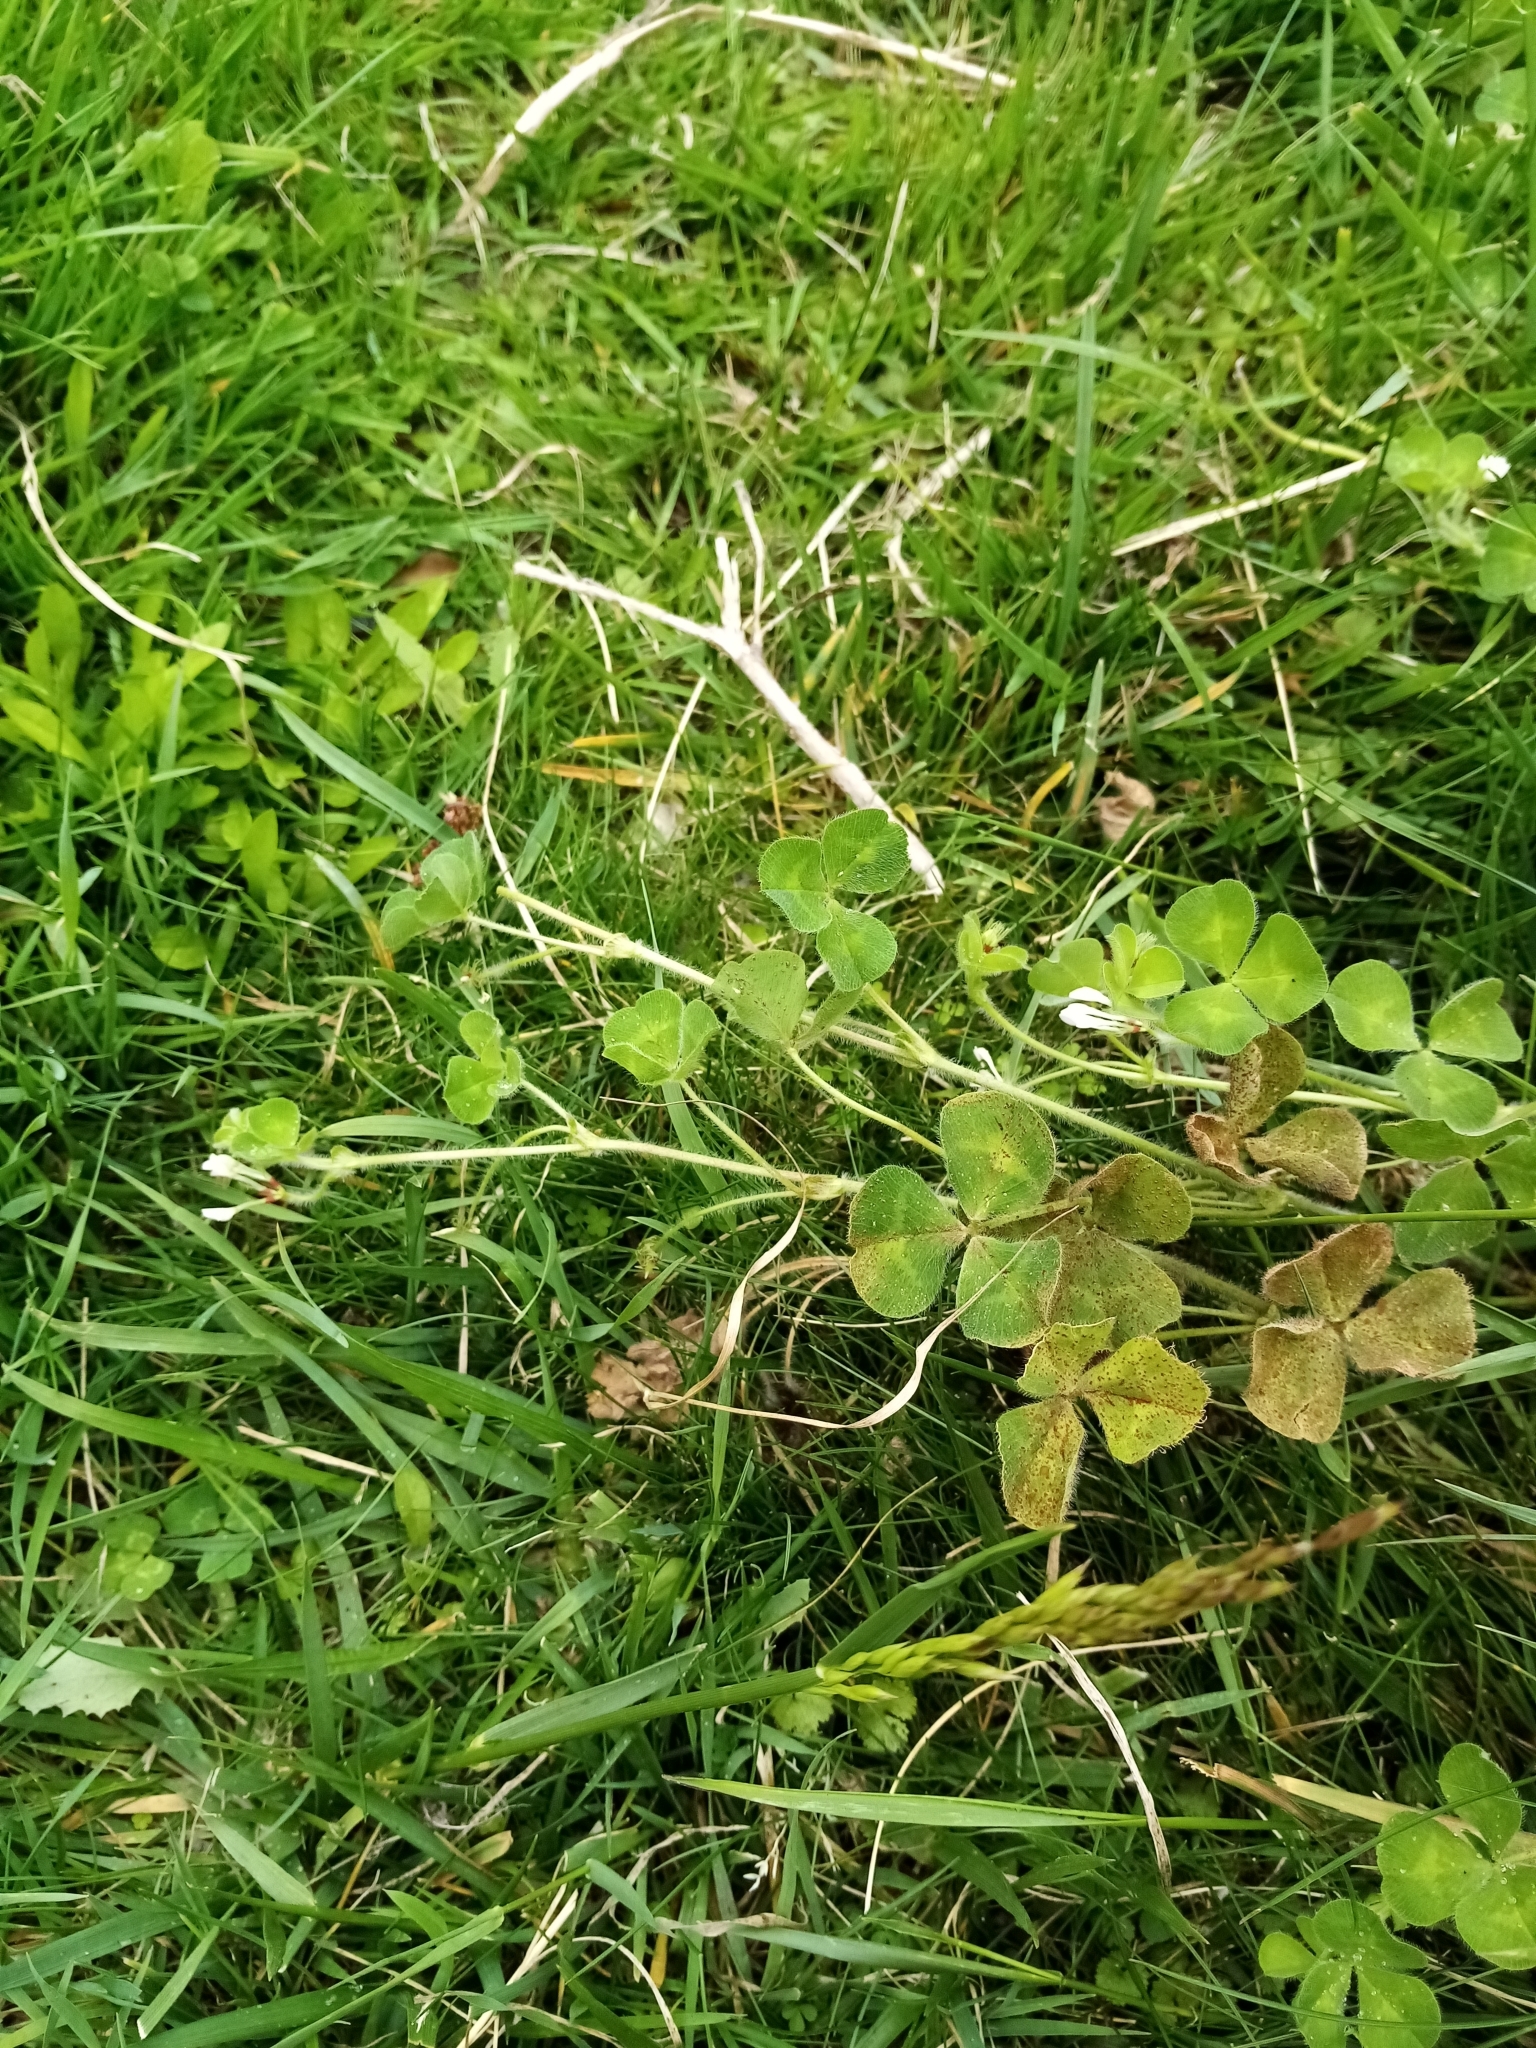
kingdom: Plantae
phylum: Tracheophyta
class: Magnoliopsida
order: Fabales
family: Fabaceae
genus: Trifolium
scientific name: Trifolium subterraneum
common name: Subterranean clover
